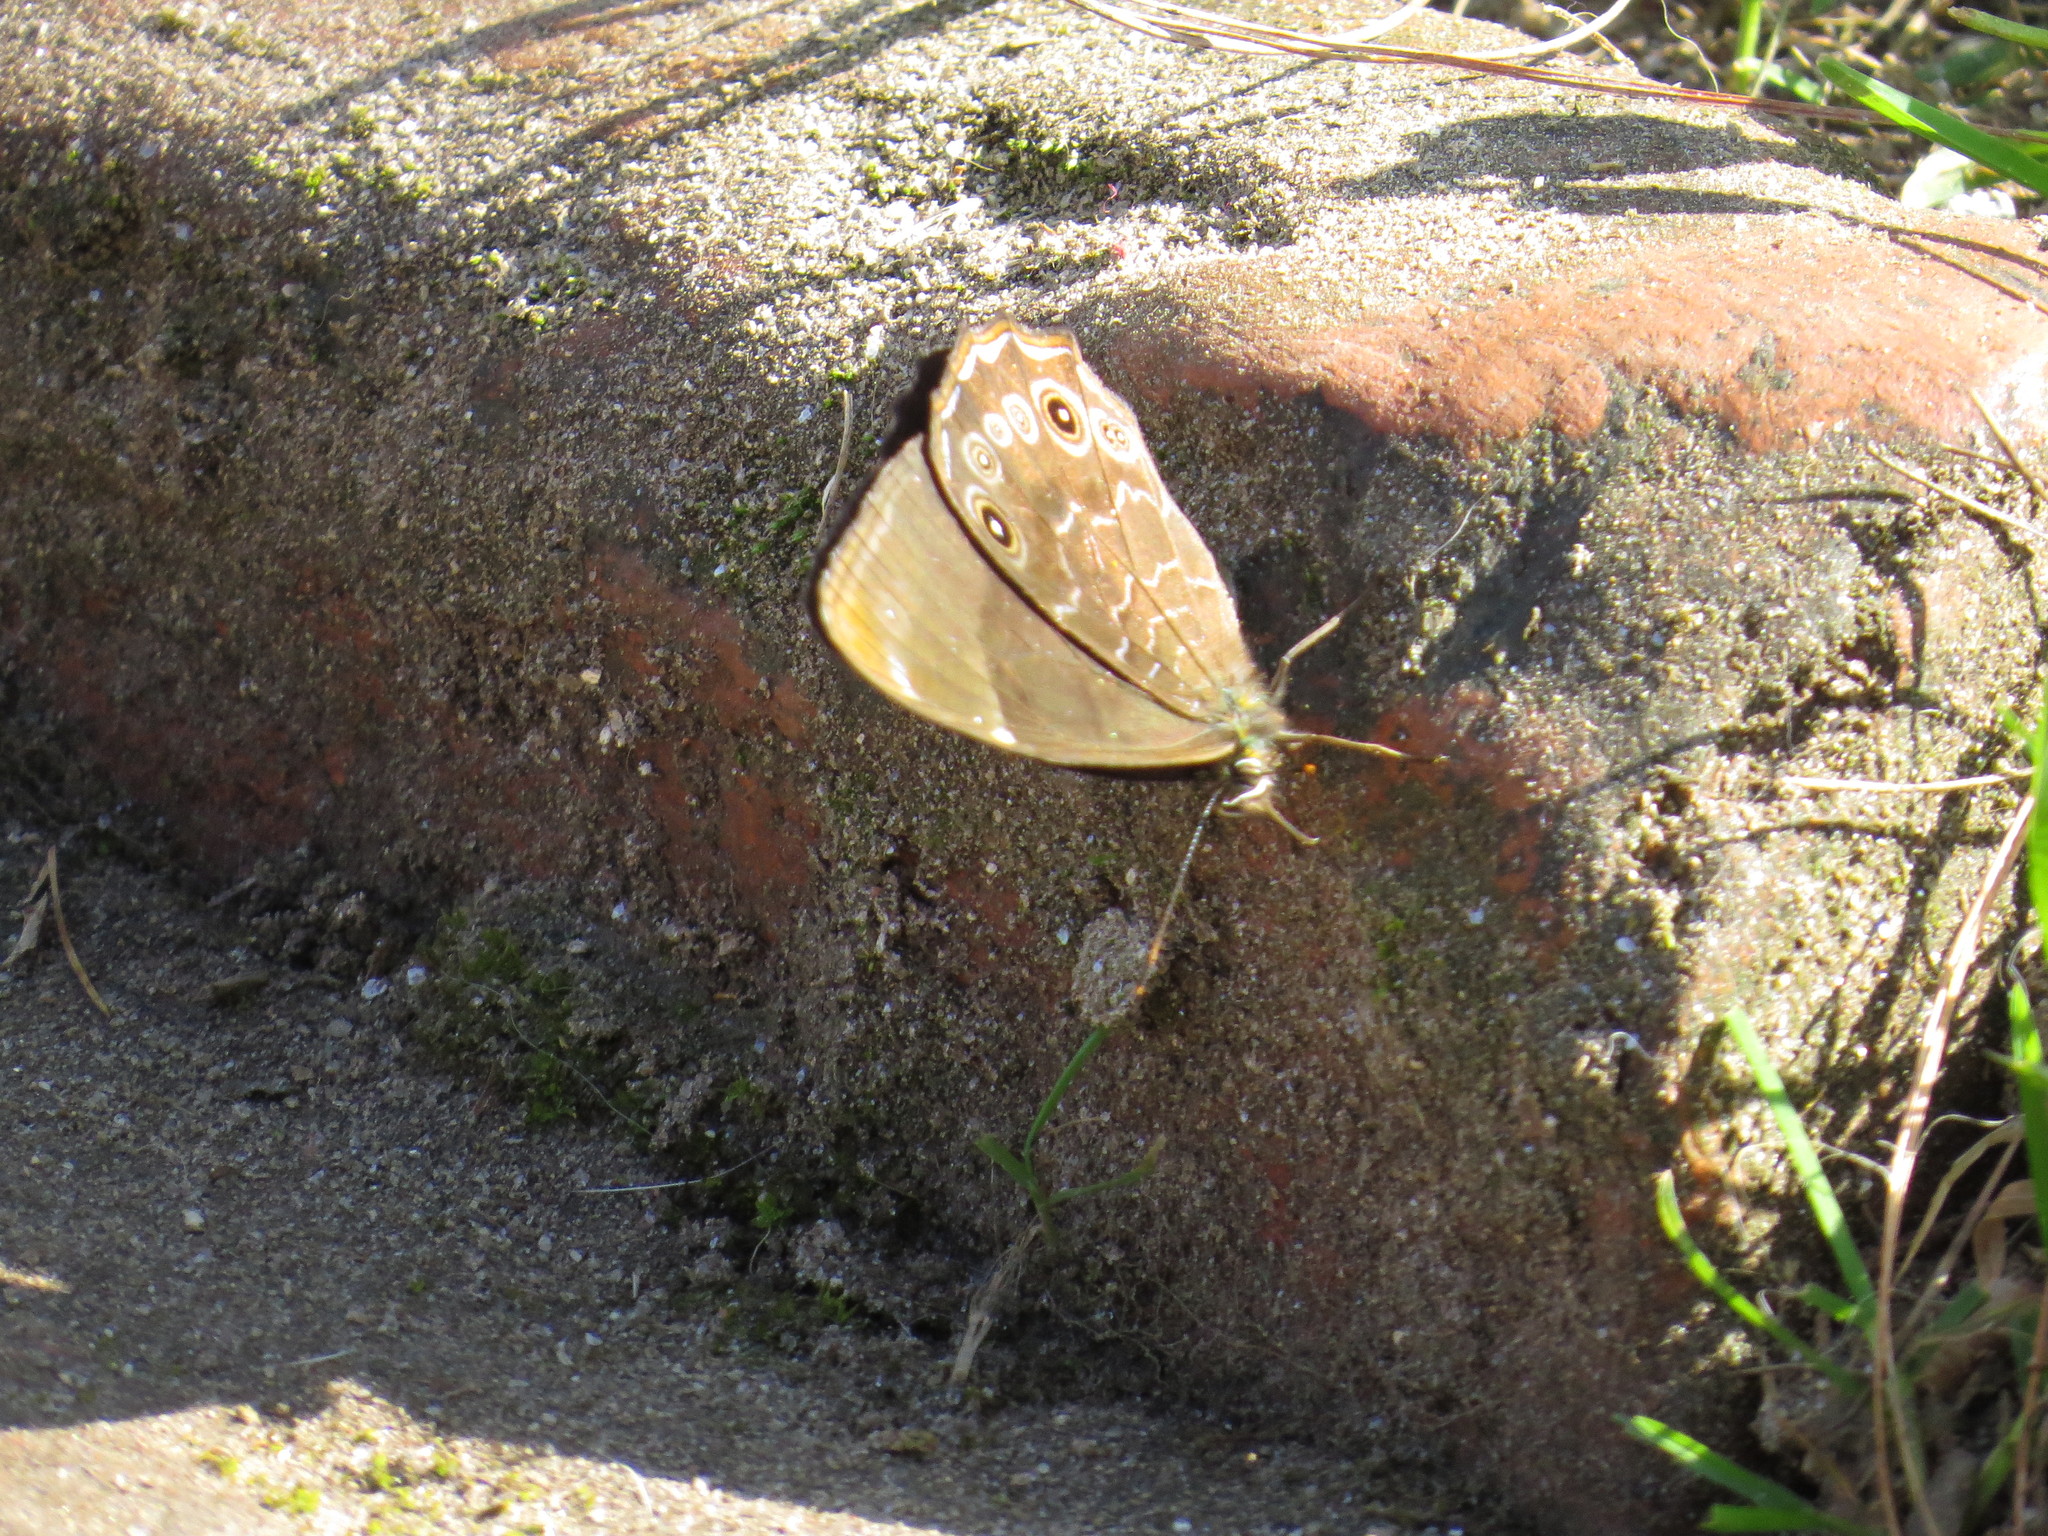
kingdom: Animalia
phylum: Arthropoda
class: Insecta
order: Lepidoptera
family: Nymphalidae
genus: Lethe
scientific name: Lethe sidonis
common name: Common woodbrown butterfly
